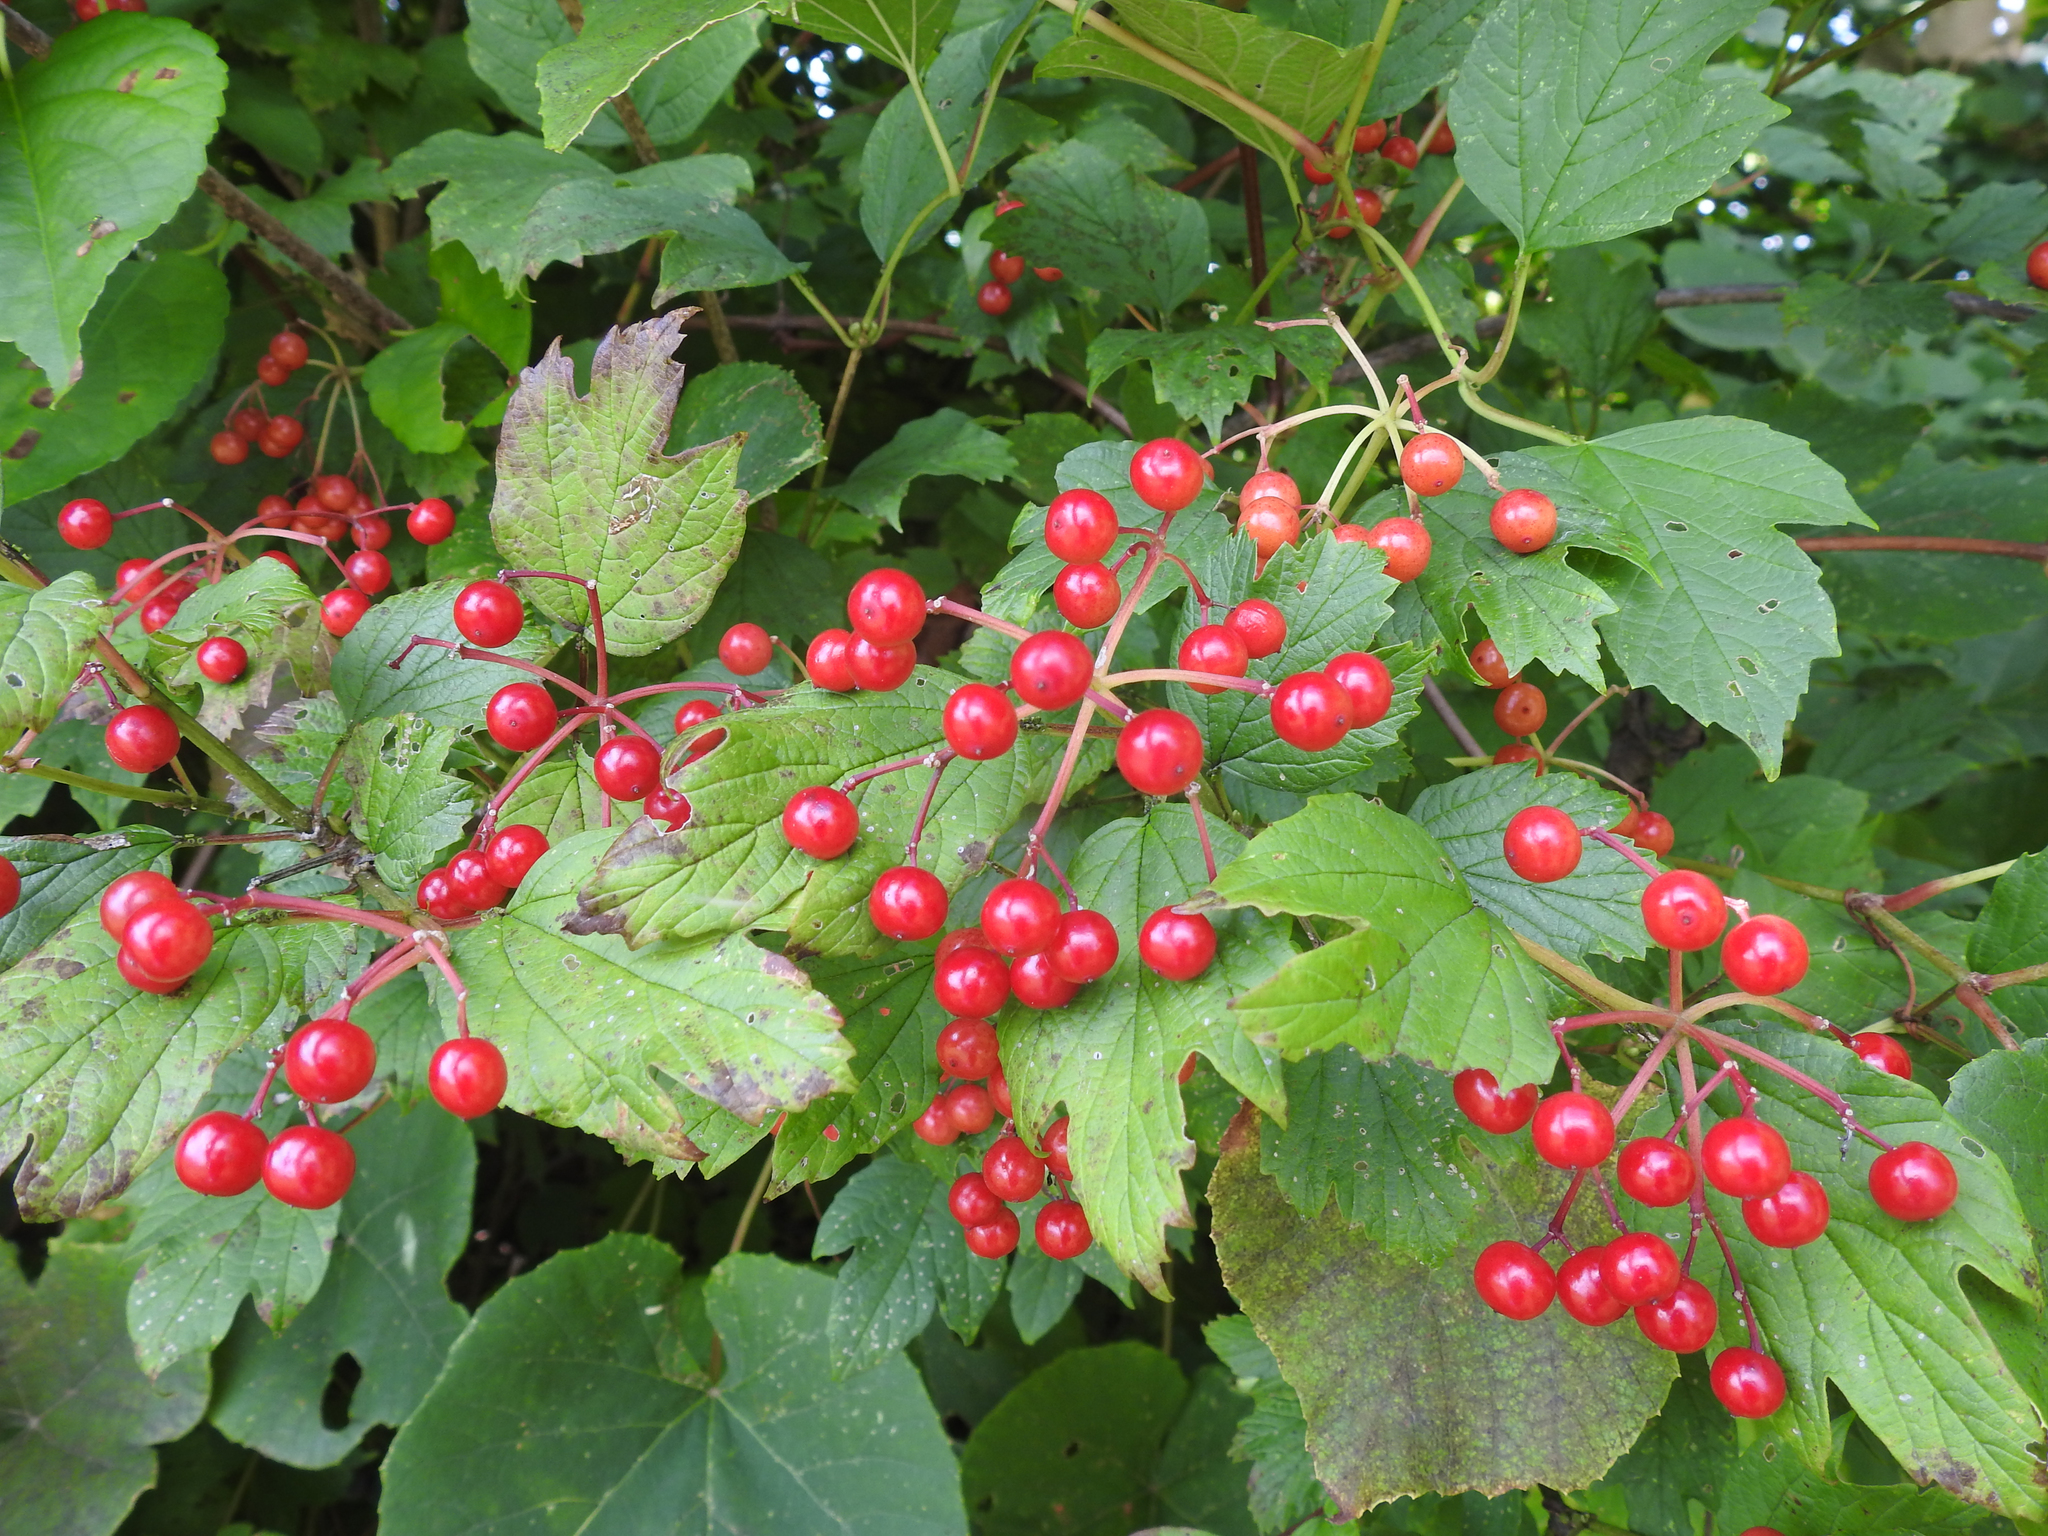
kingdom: Plantae
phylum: Tracheophyta
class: Magnoliopsida
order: Dipsacales
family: Viburnaceae
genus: Viburnum
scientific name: Viburnum opulus
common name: Guelder-rose
